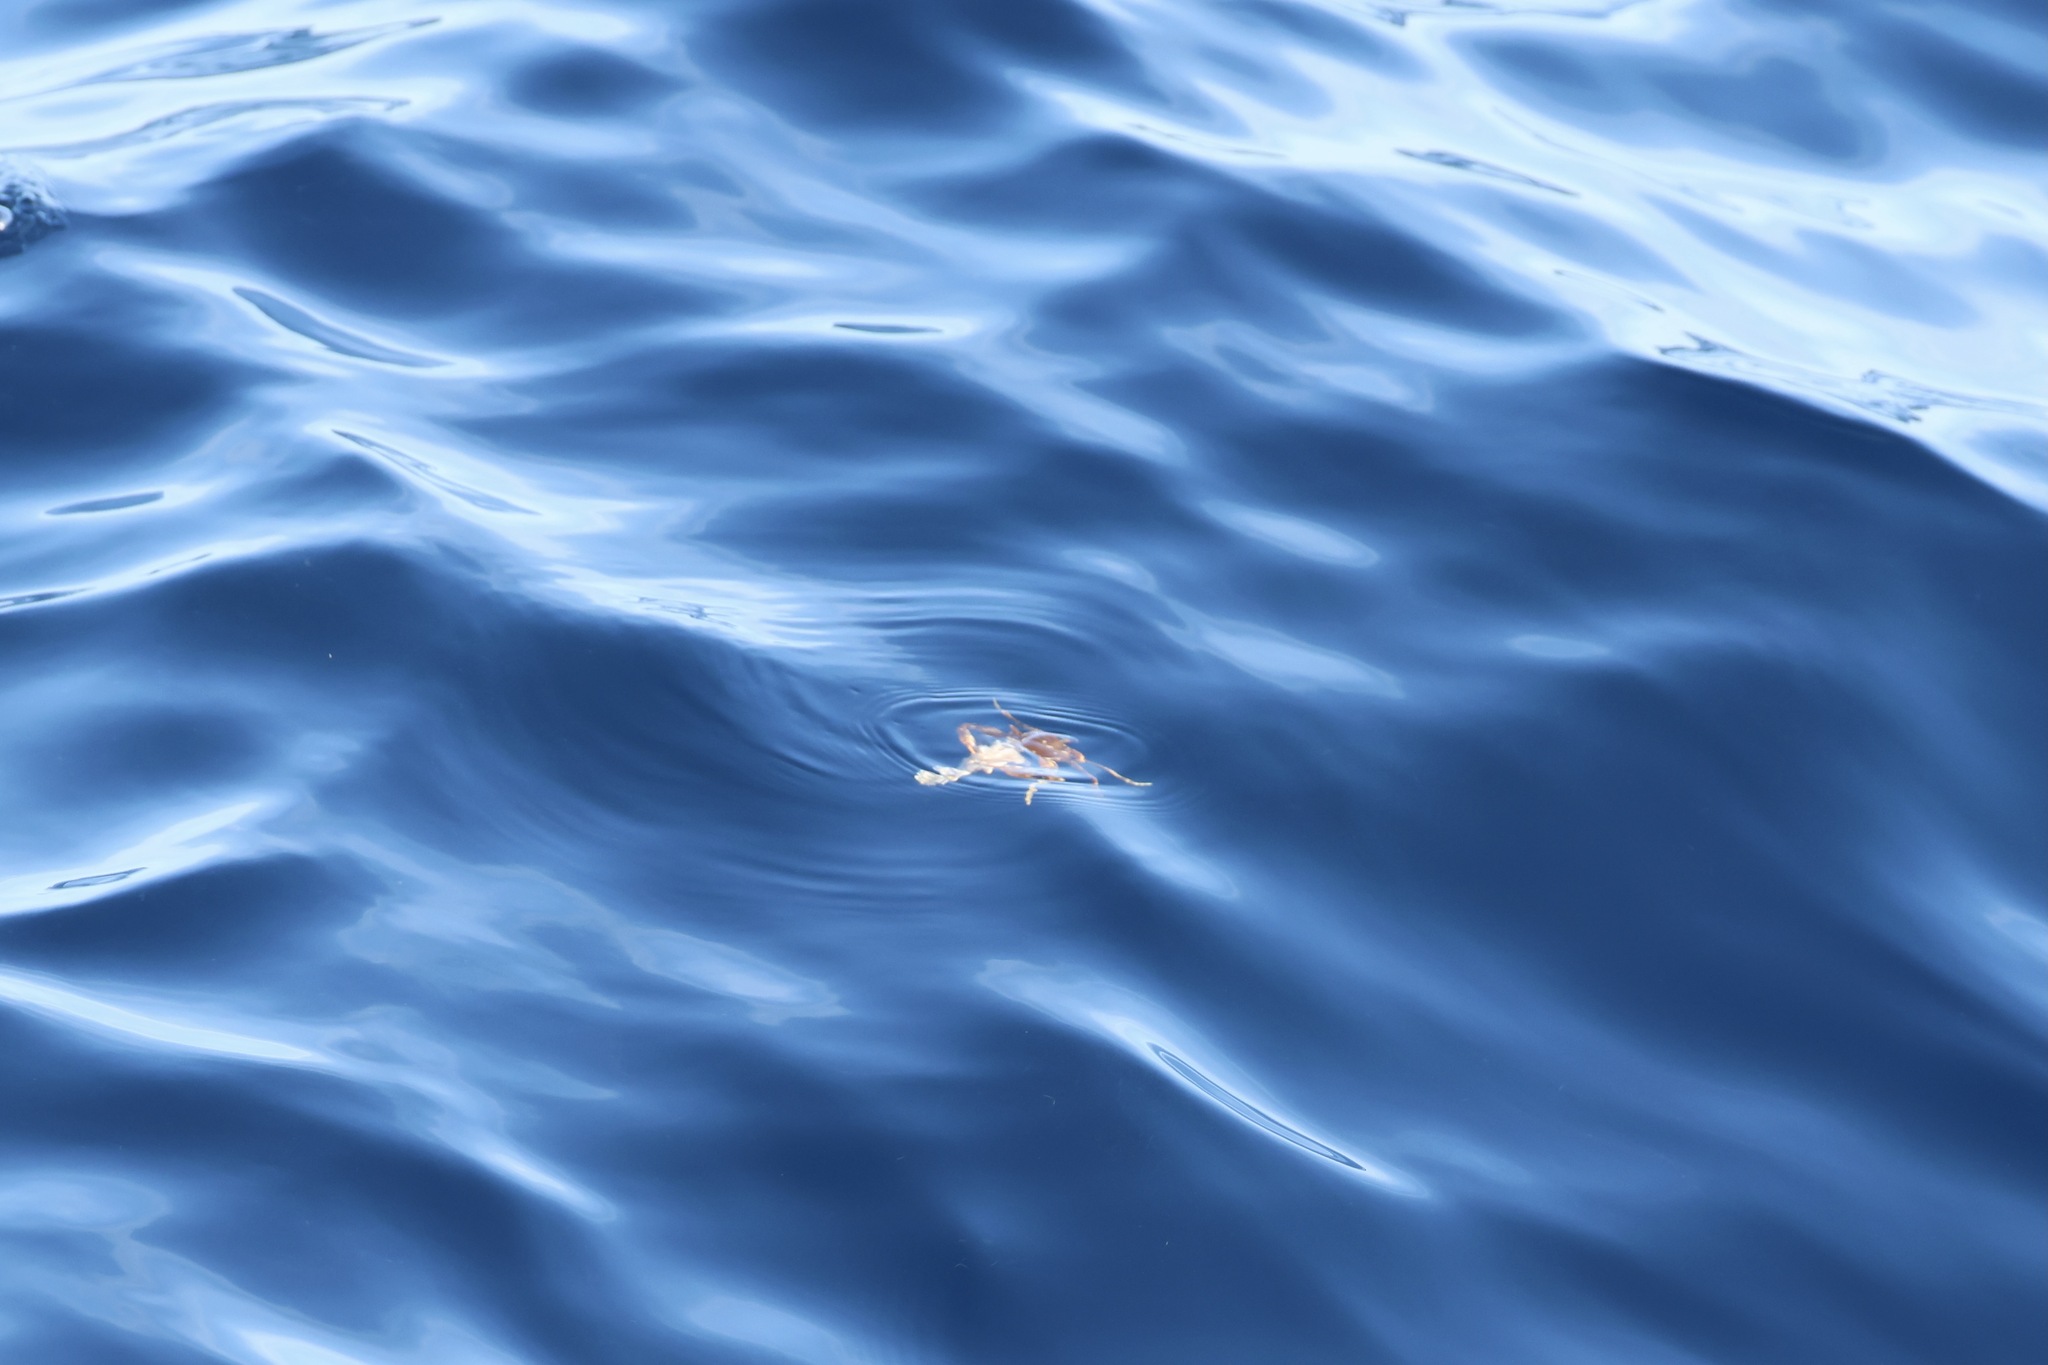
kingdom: Animalia
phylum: Arthropoda
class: Malacostraca
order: Decapoda
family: Portunidae
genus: Portunus
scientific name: Portunus sayi
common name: Sargassum crab
